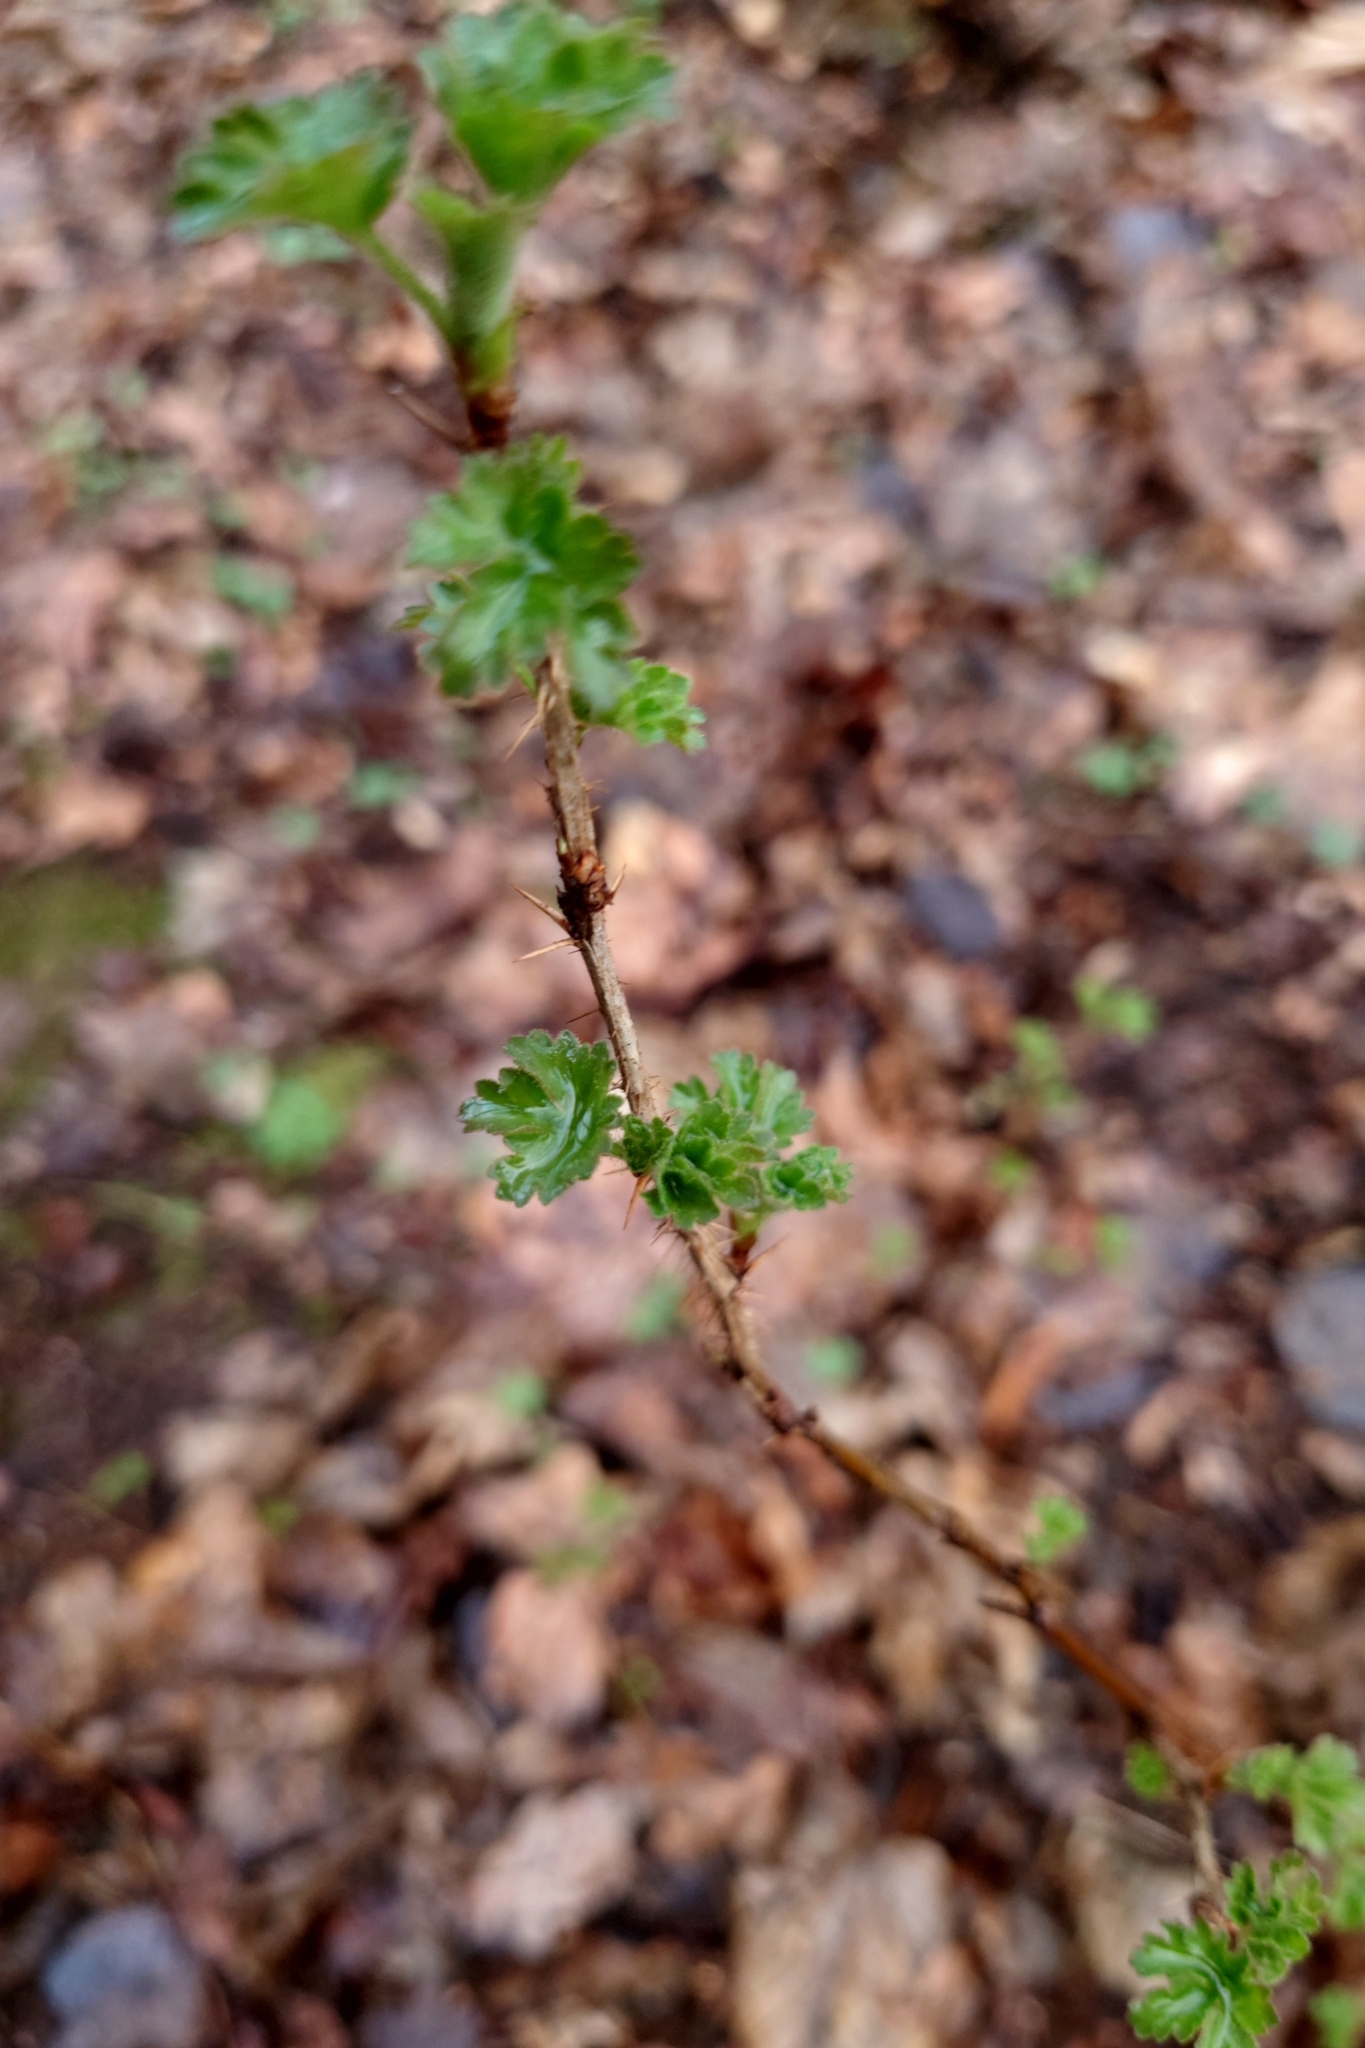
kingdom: Plantae
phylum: Tracheophyta
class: Magnoliopsida
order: Saxifragales
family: Grossulariaceae
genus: Ribes
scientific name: Ribes uva-crispa
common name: Gooseberry
